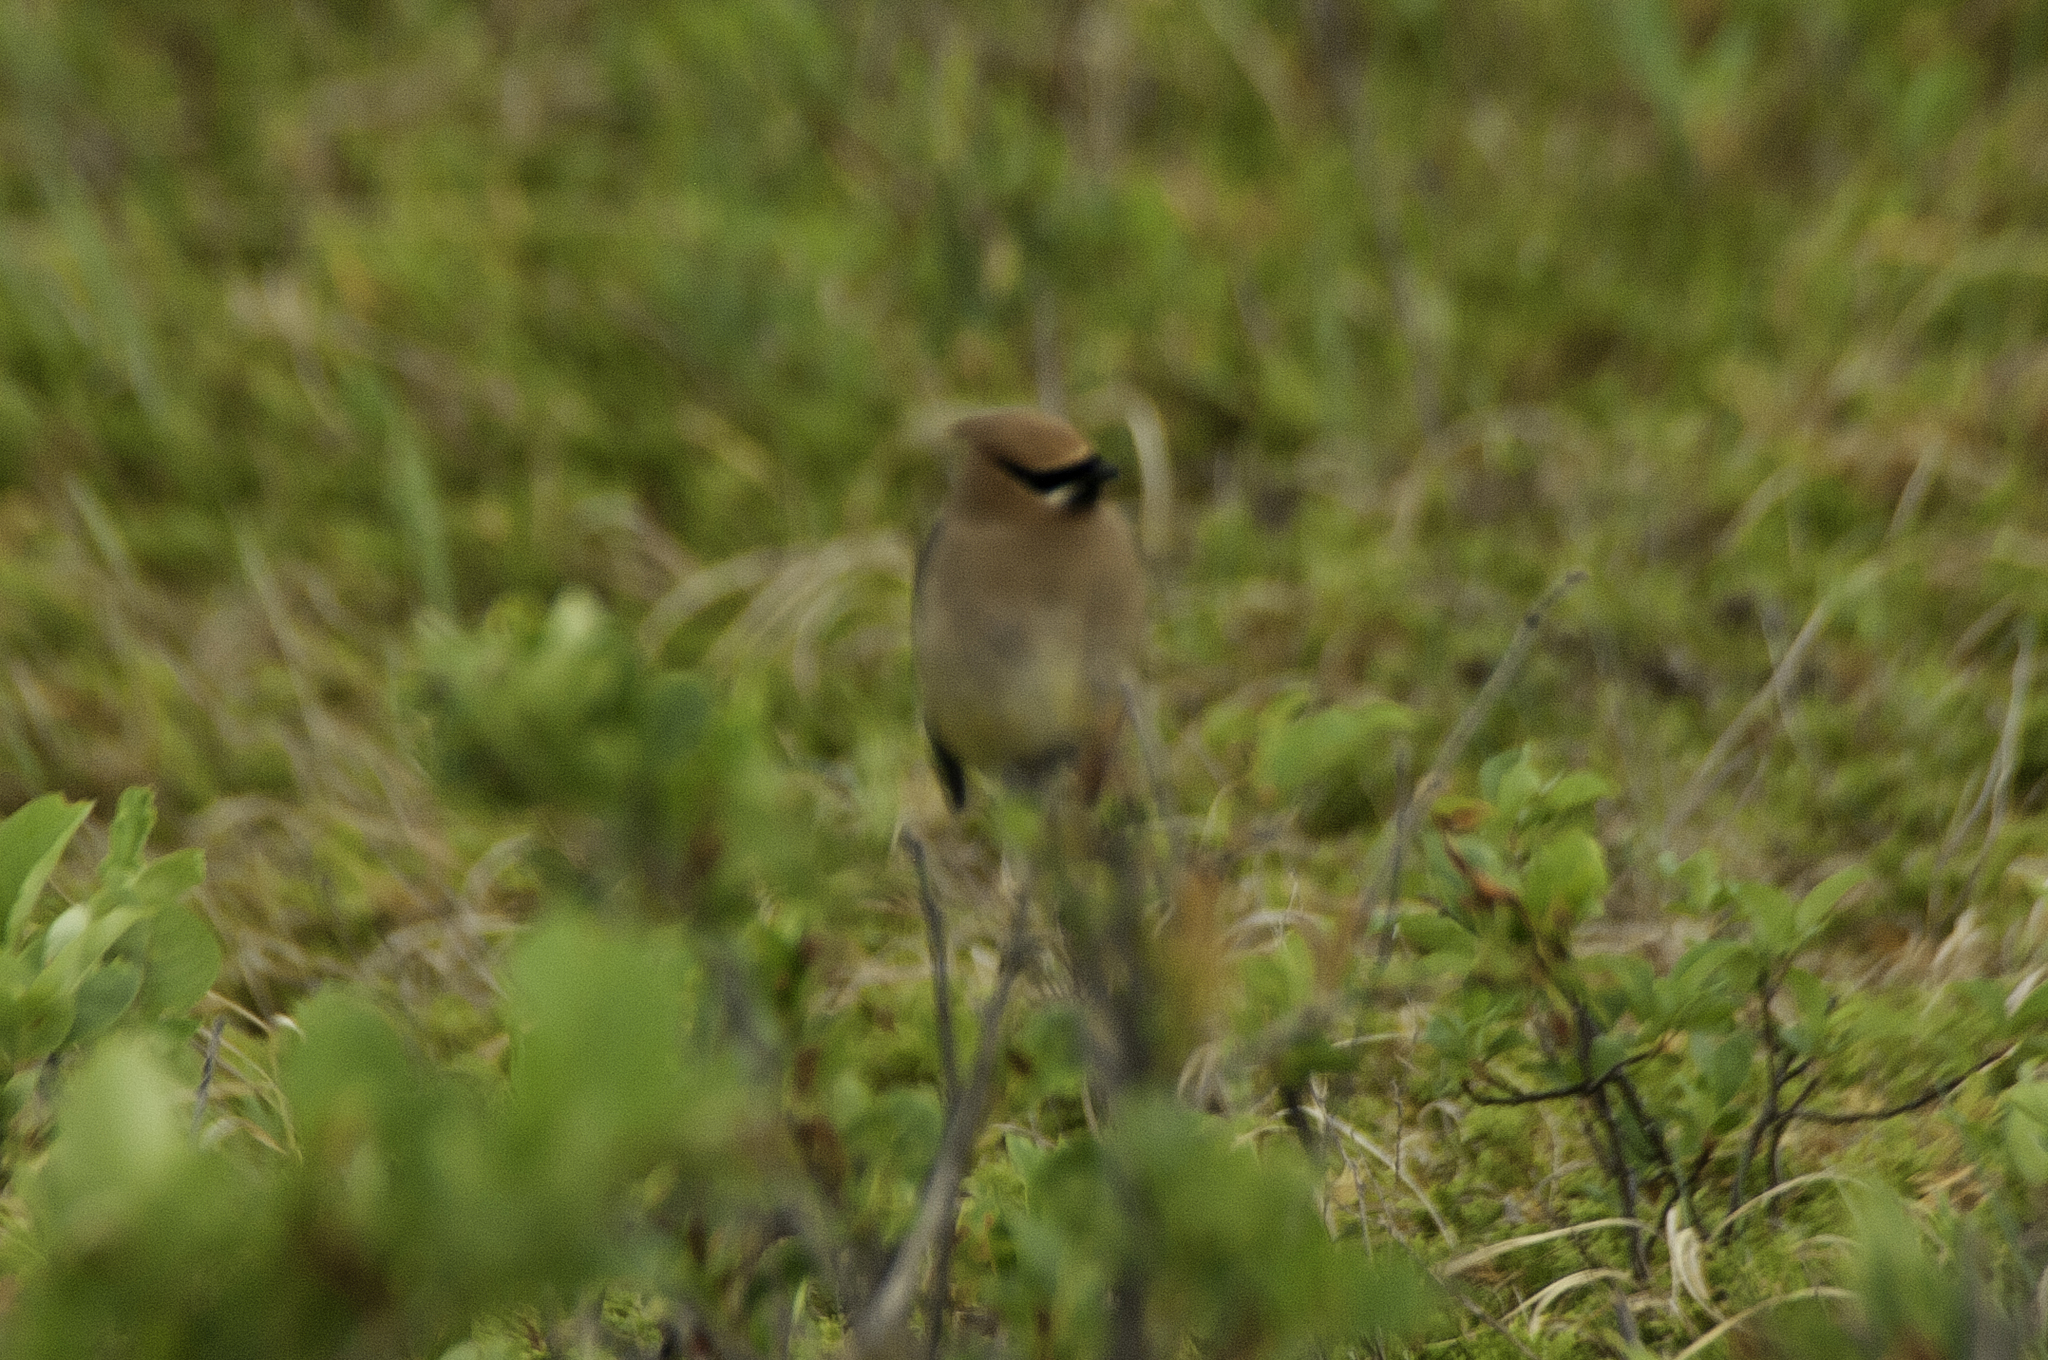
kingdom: Animalia
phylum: Chordata
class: Aves
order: Passeriformes
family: Bombycillidae
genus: Bombycilla
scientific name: Bombycilla cedrorum
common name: Cedar waxwing
